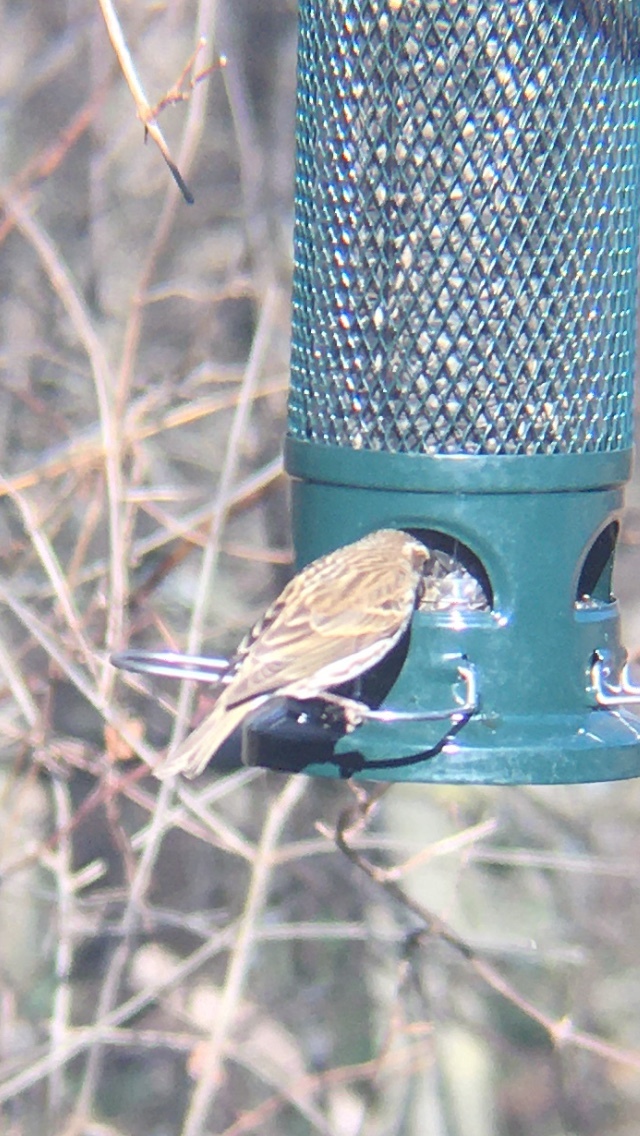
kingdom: Animalia
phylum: Chordata
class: Aves
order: Passeriformes
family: Fringillidae
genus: Haemorhous
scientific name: Haemorhous purpureus
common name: Purple finch
